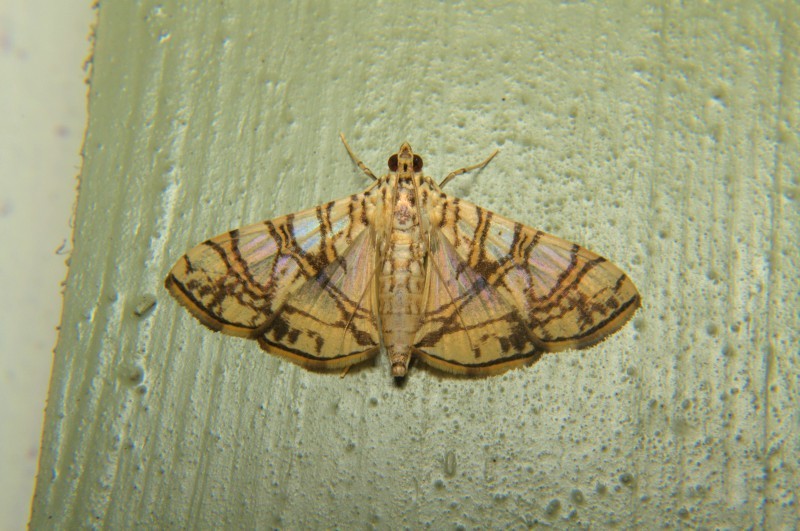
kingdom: Animalia
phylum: Arthropoda
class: Insecta
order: Lepidoptera
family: Crambidae
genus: Glyphodes
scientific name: Glyphodes caesalis
